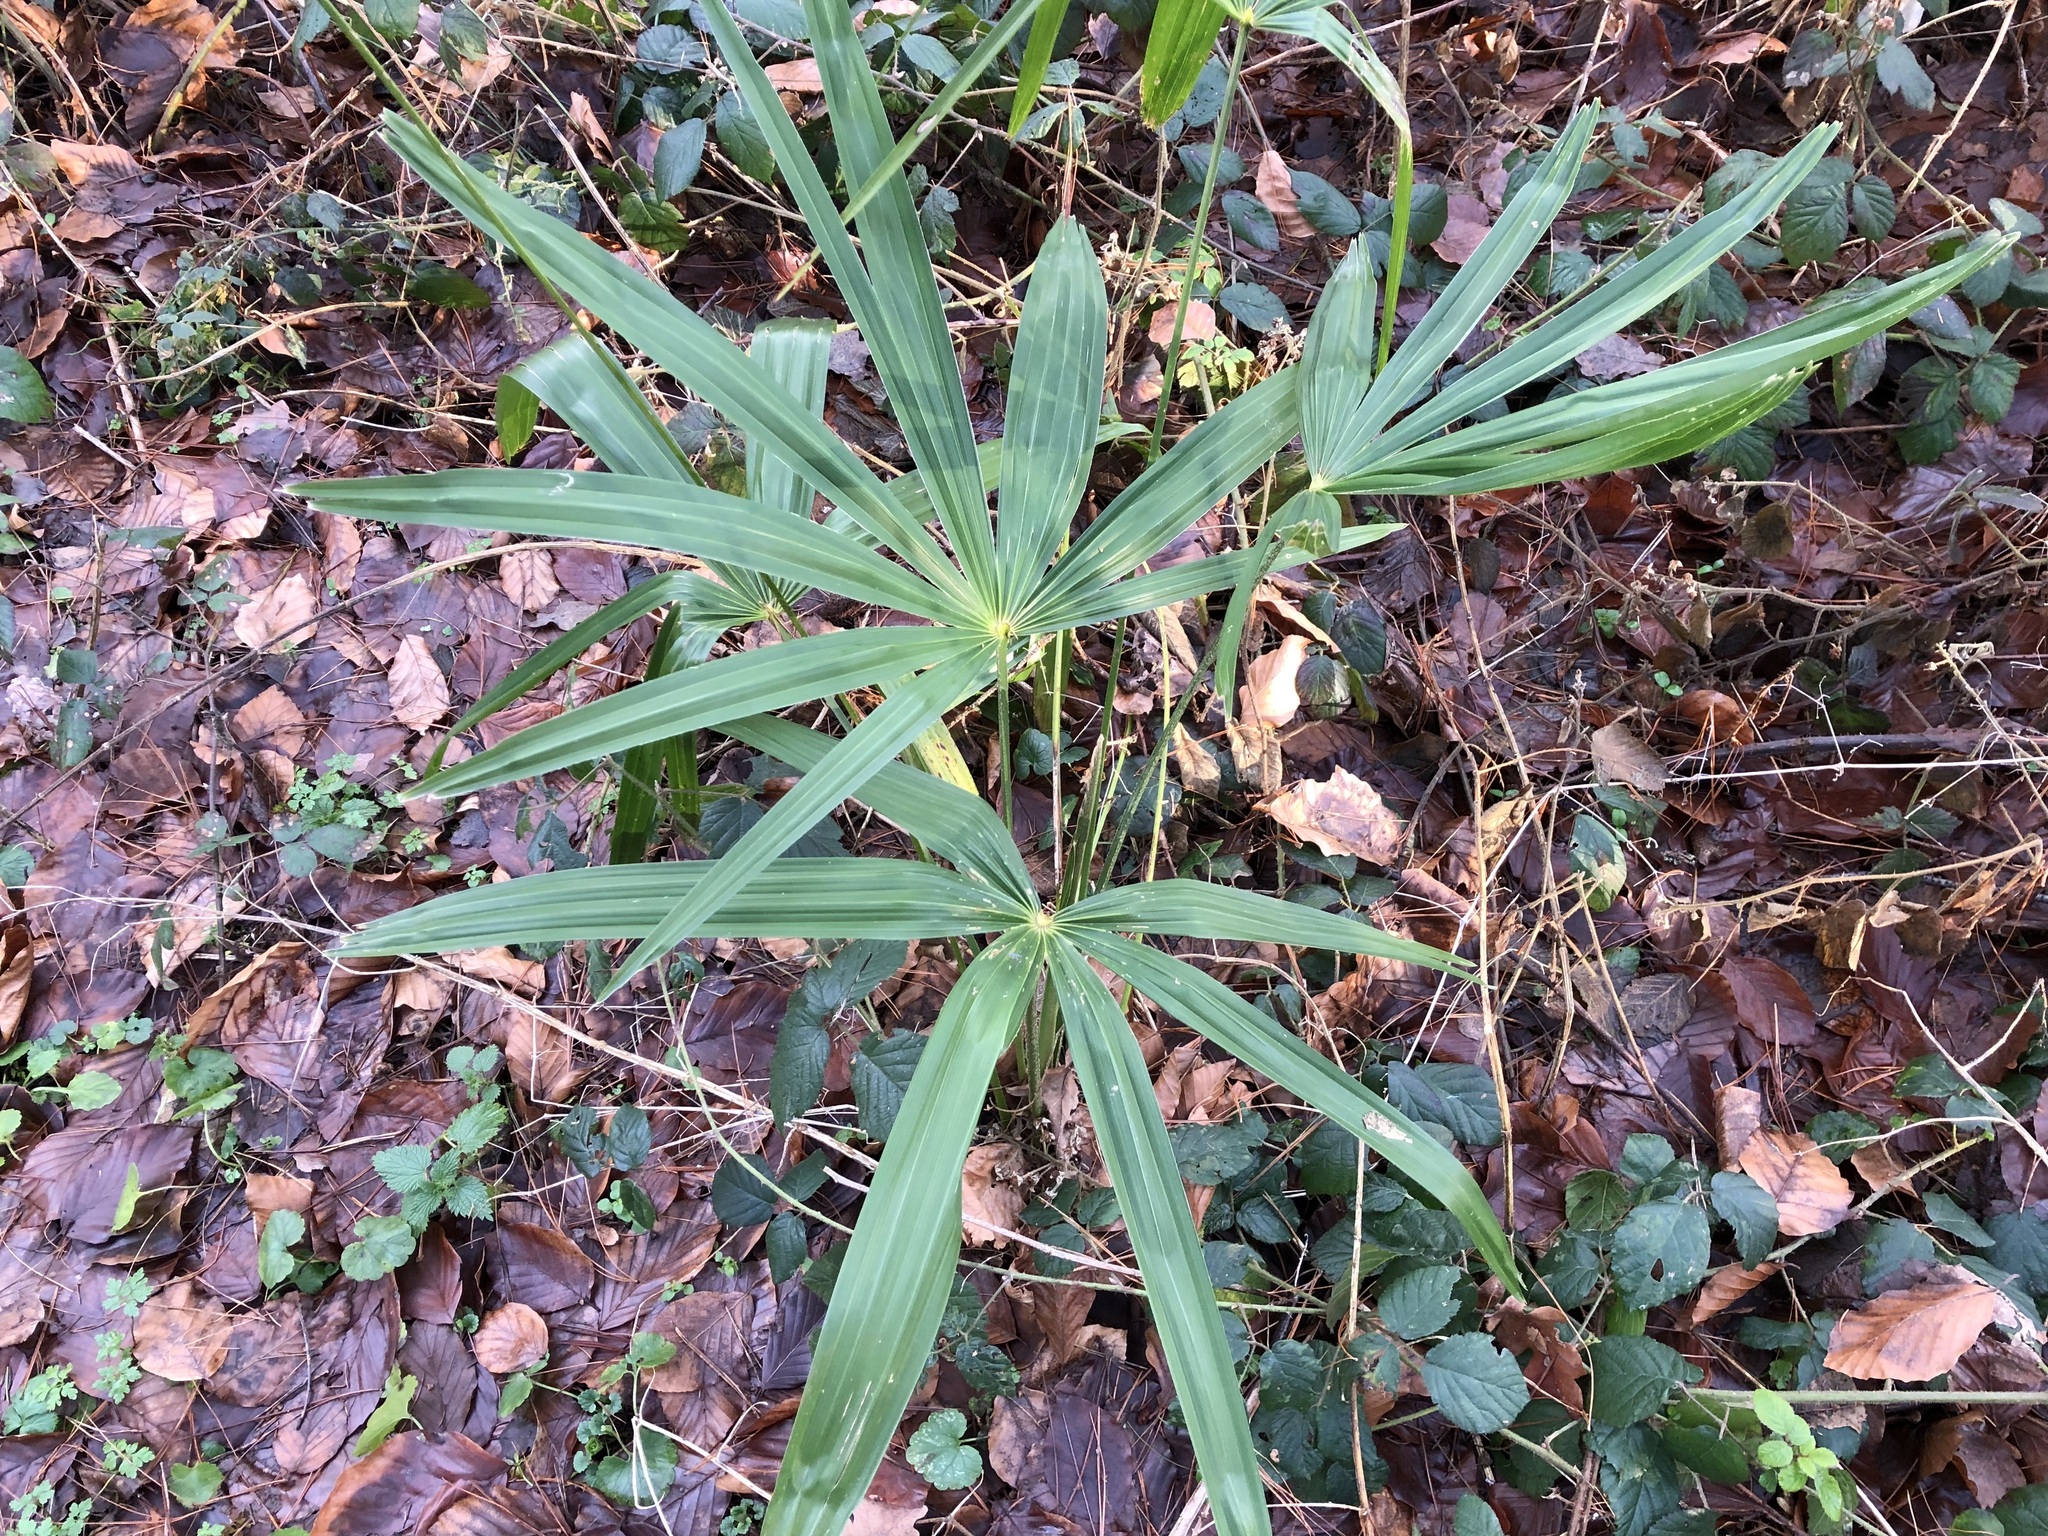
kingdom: Plantae
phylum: Tracheophyta
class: Liliopsida
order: Arecales
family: Arecaceae
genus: Trachycarpus
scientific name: Trachycarpus fortunei
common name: Chusan palm
